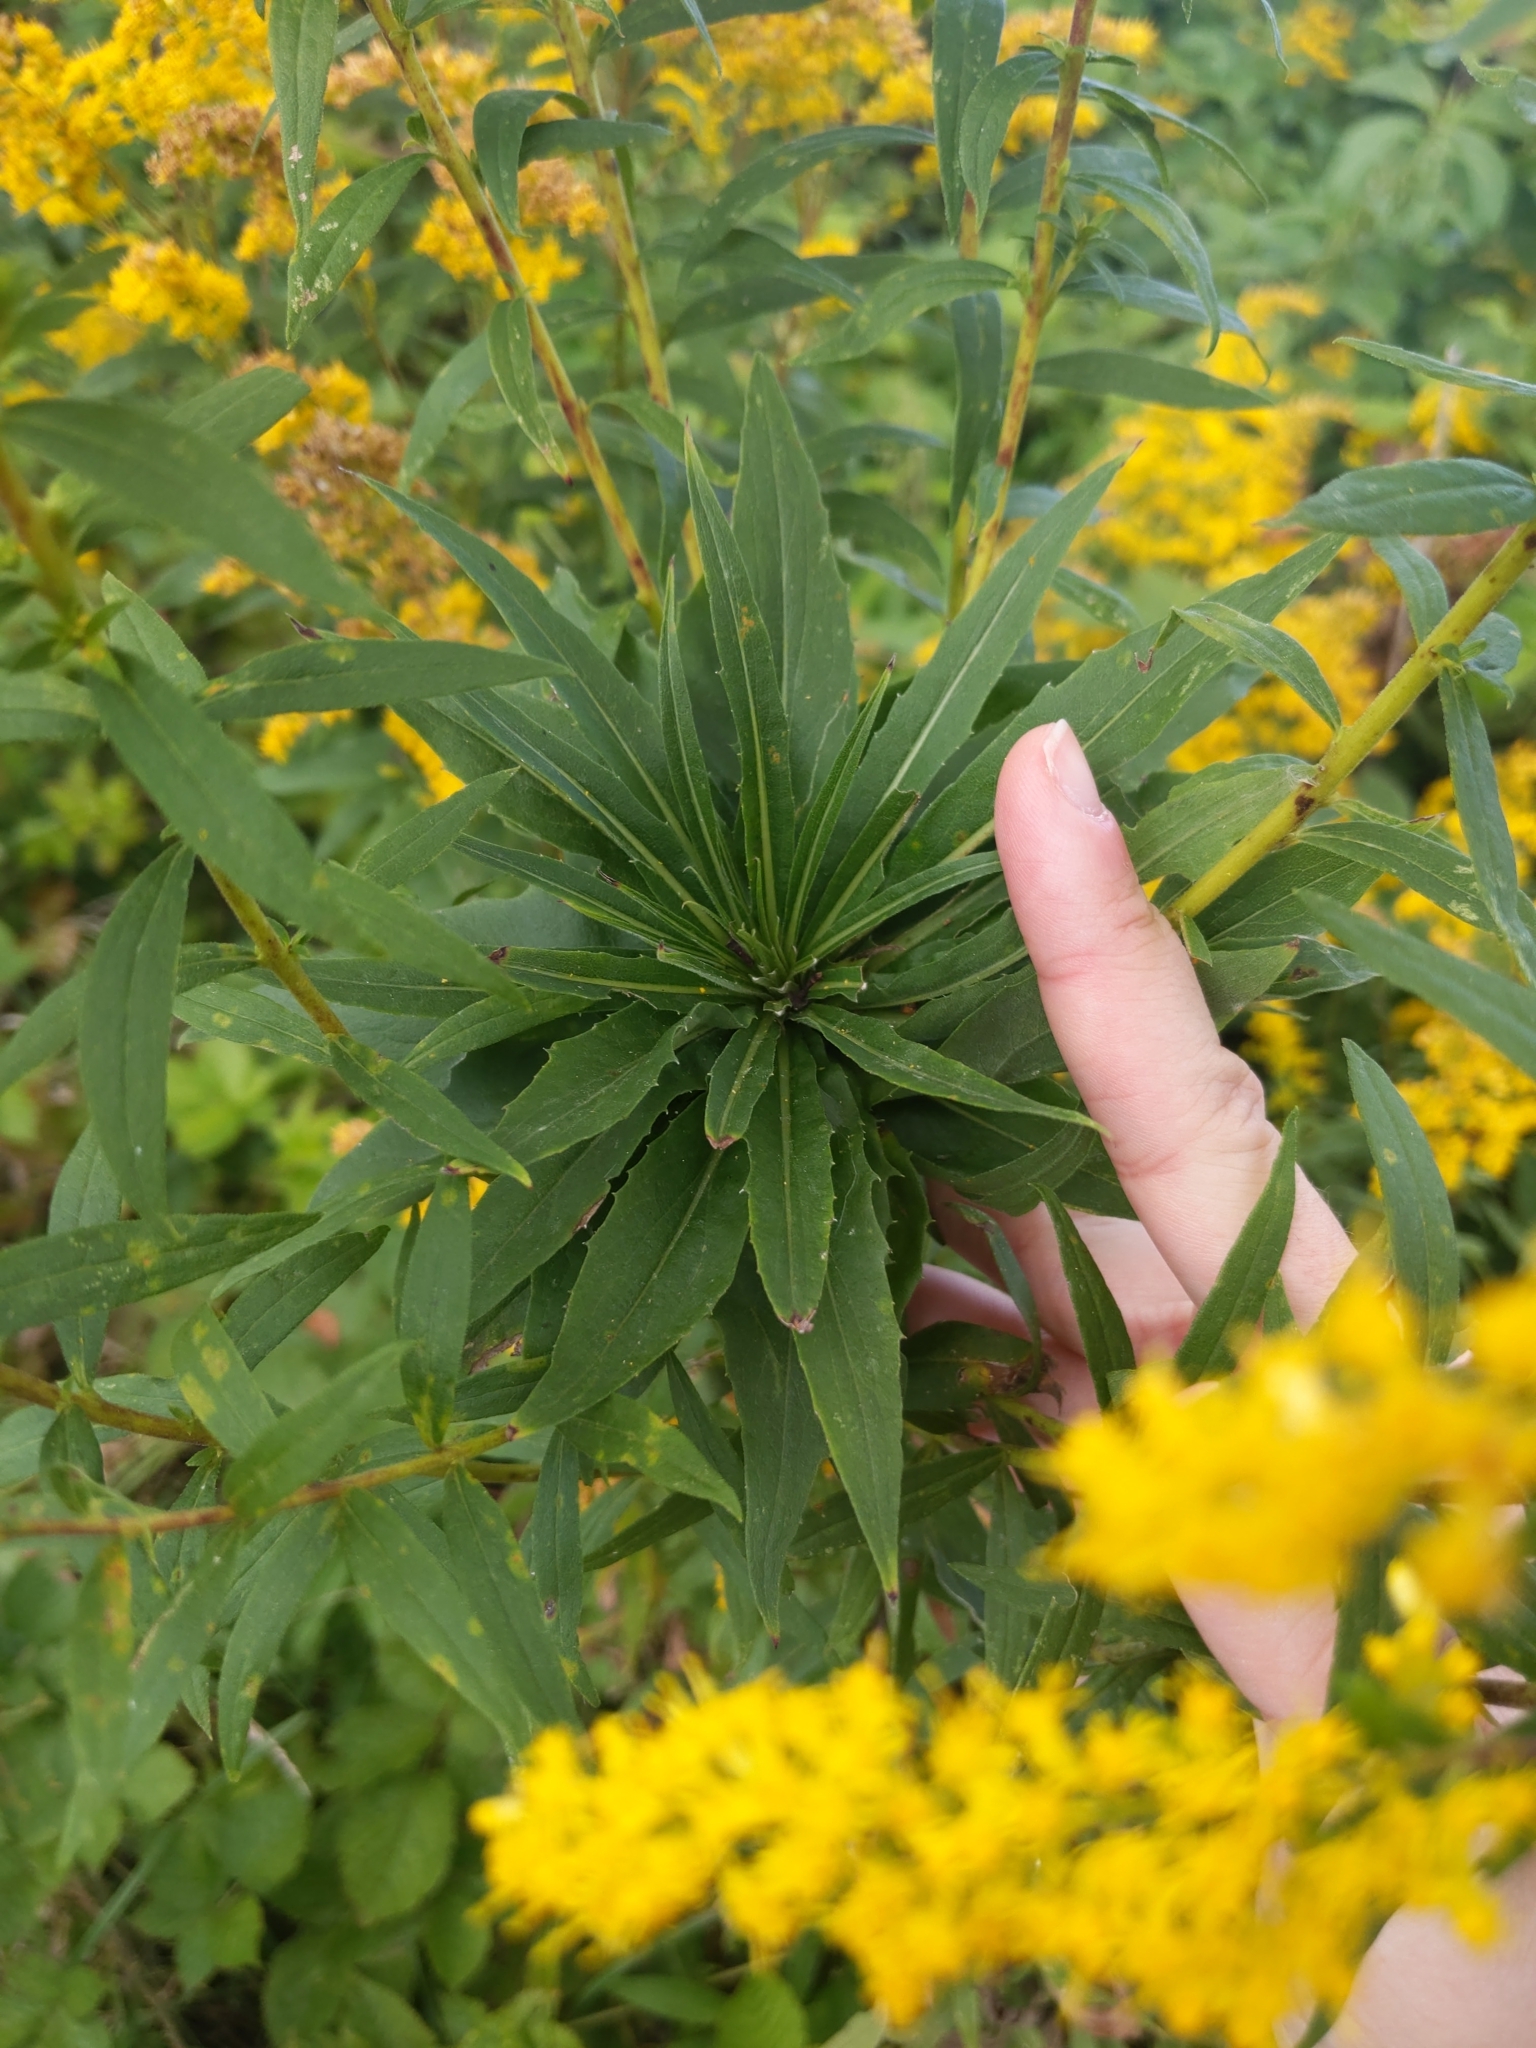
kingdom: Animalia
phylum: Arthropoda
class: Insecta
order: Diptera
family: Cecidomyiidae
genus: Rhopalomyia
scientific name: Rhopalomyia solidaginis
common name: Goldenrod bunch gall midge
